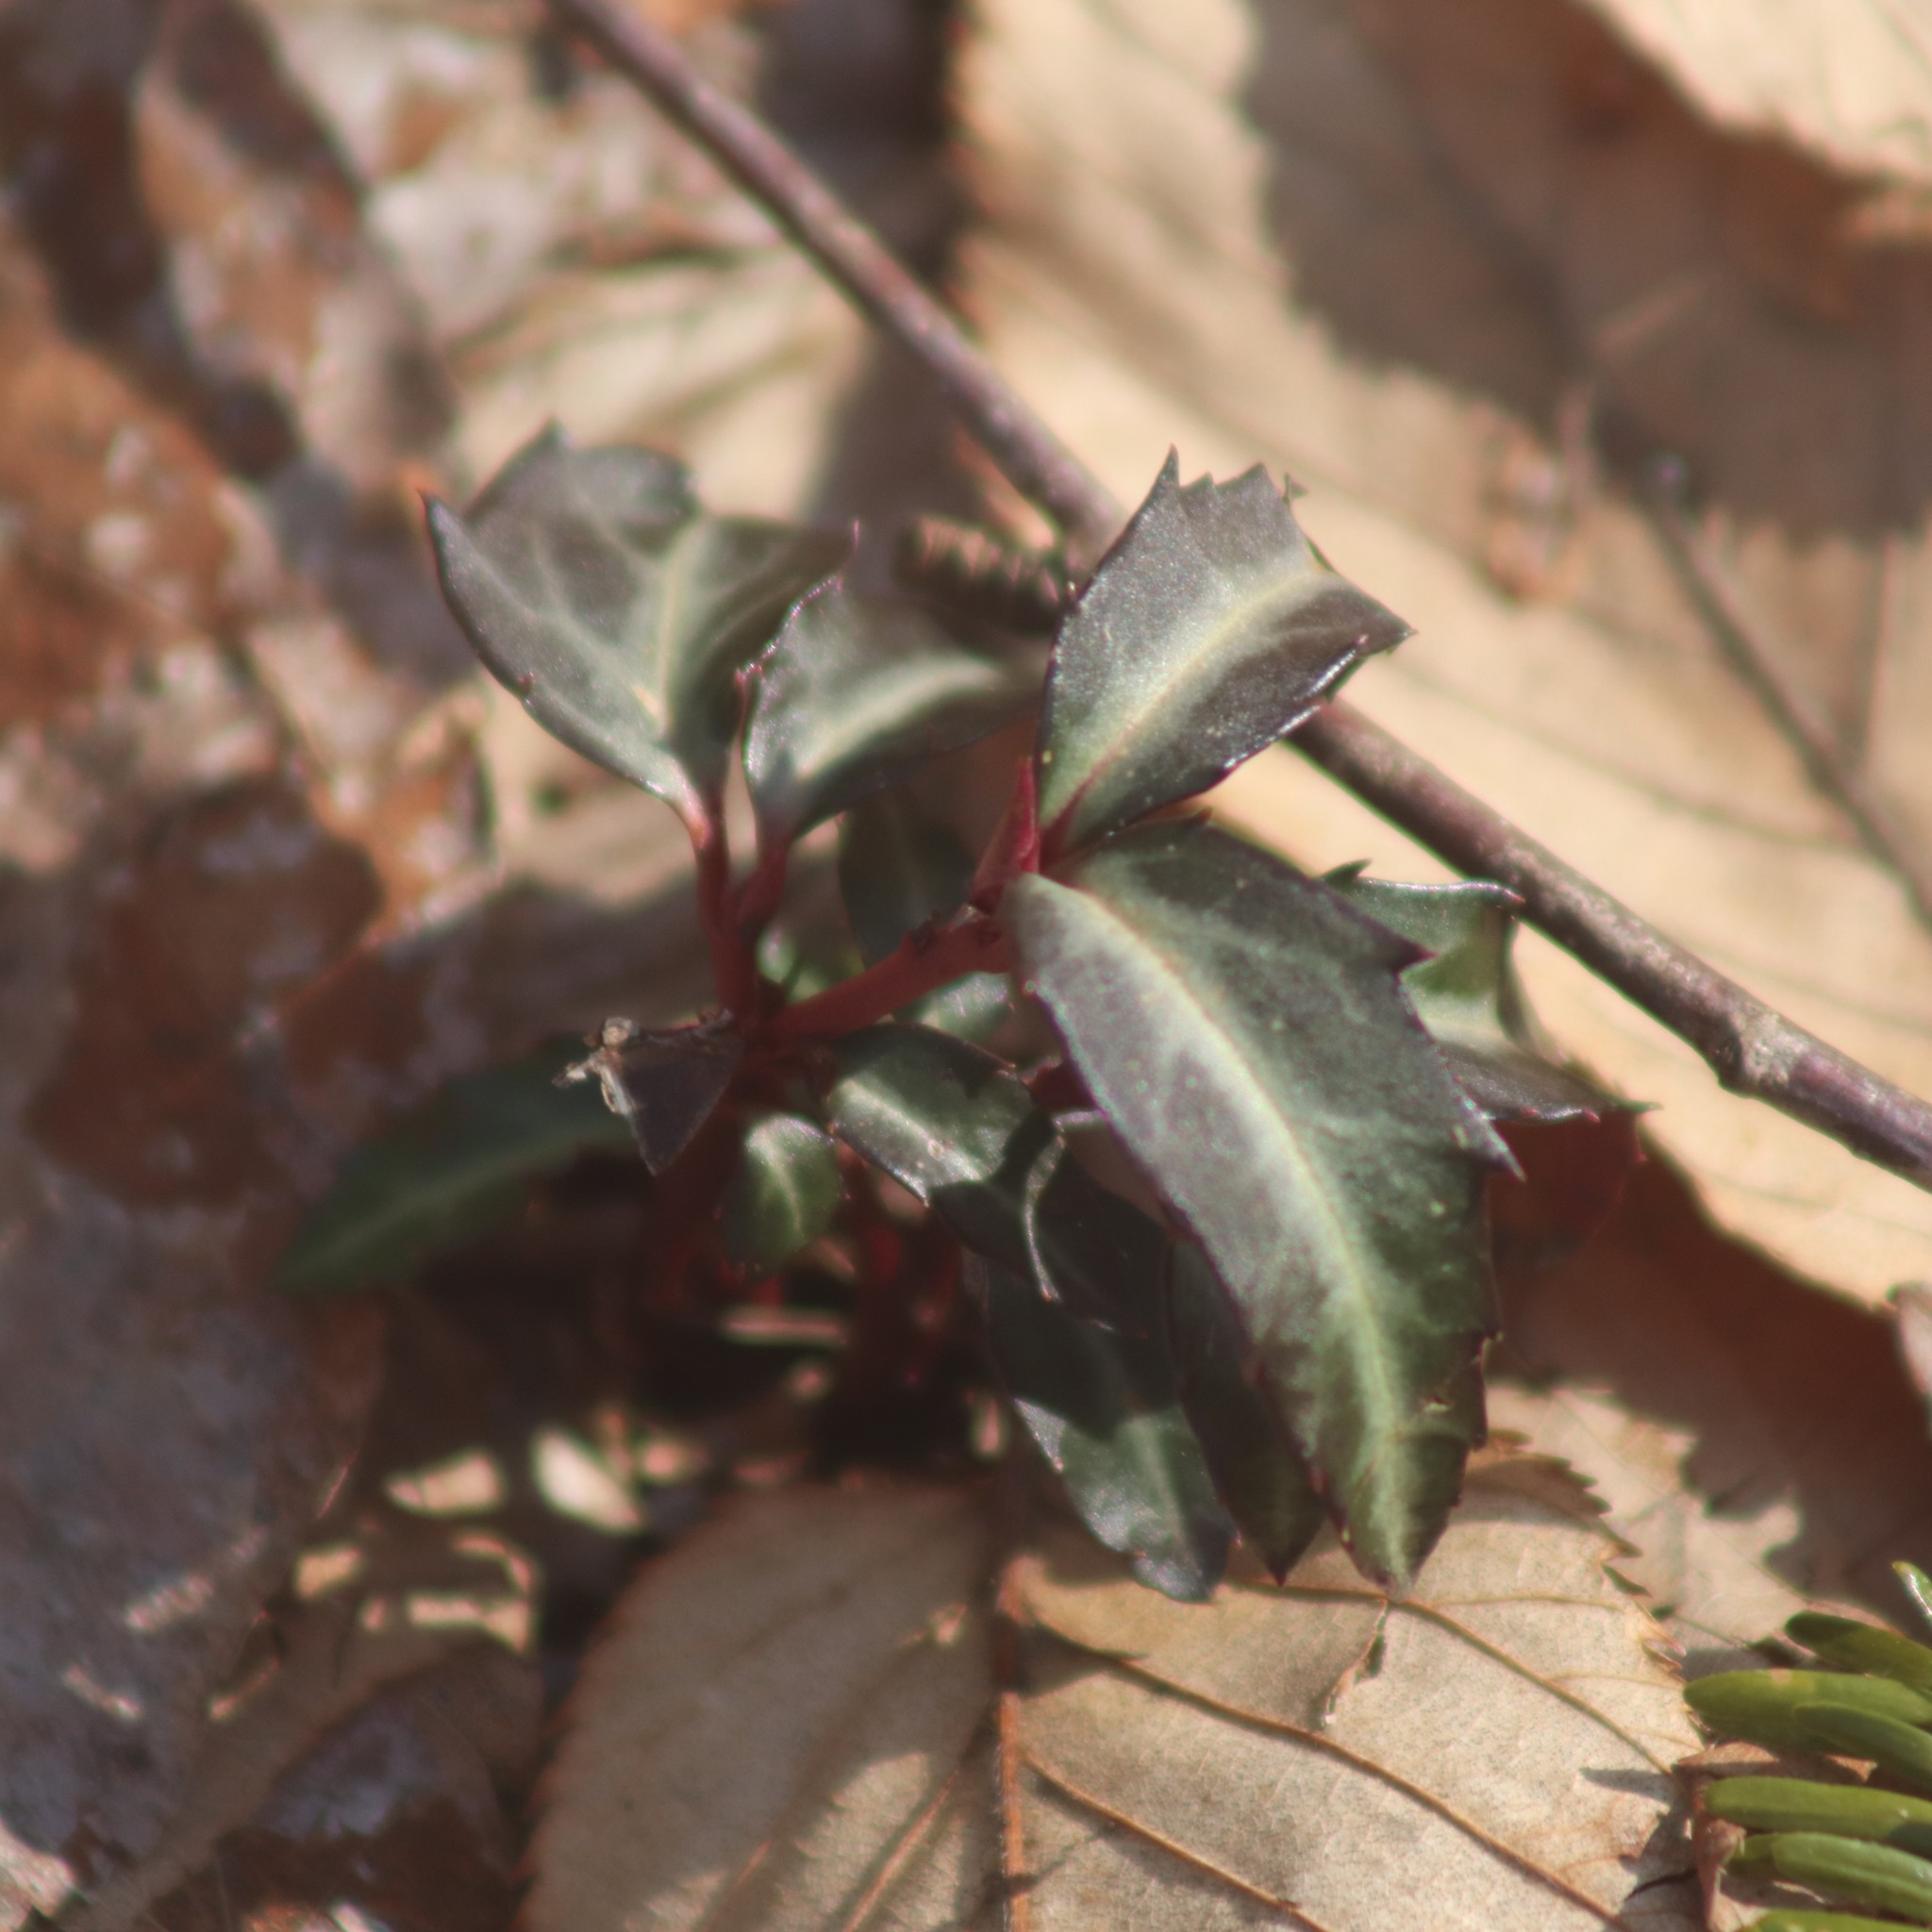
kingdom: Plantae
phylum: Tracheophyta
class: Magnoliopsida
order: Ericales
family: Ericaceae
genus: Chimaphila
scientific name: Chimaphila maculata
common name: Spotted pipsissewa
